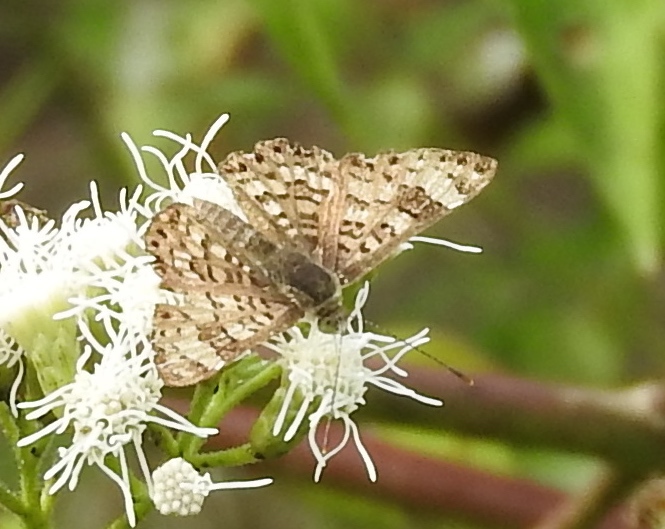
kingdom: Animalia
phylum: Arthropoda
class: Insecta
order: Lepidoptera
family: Riodinidae
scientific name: Riodinidae
